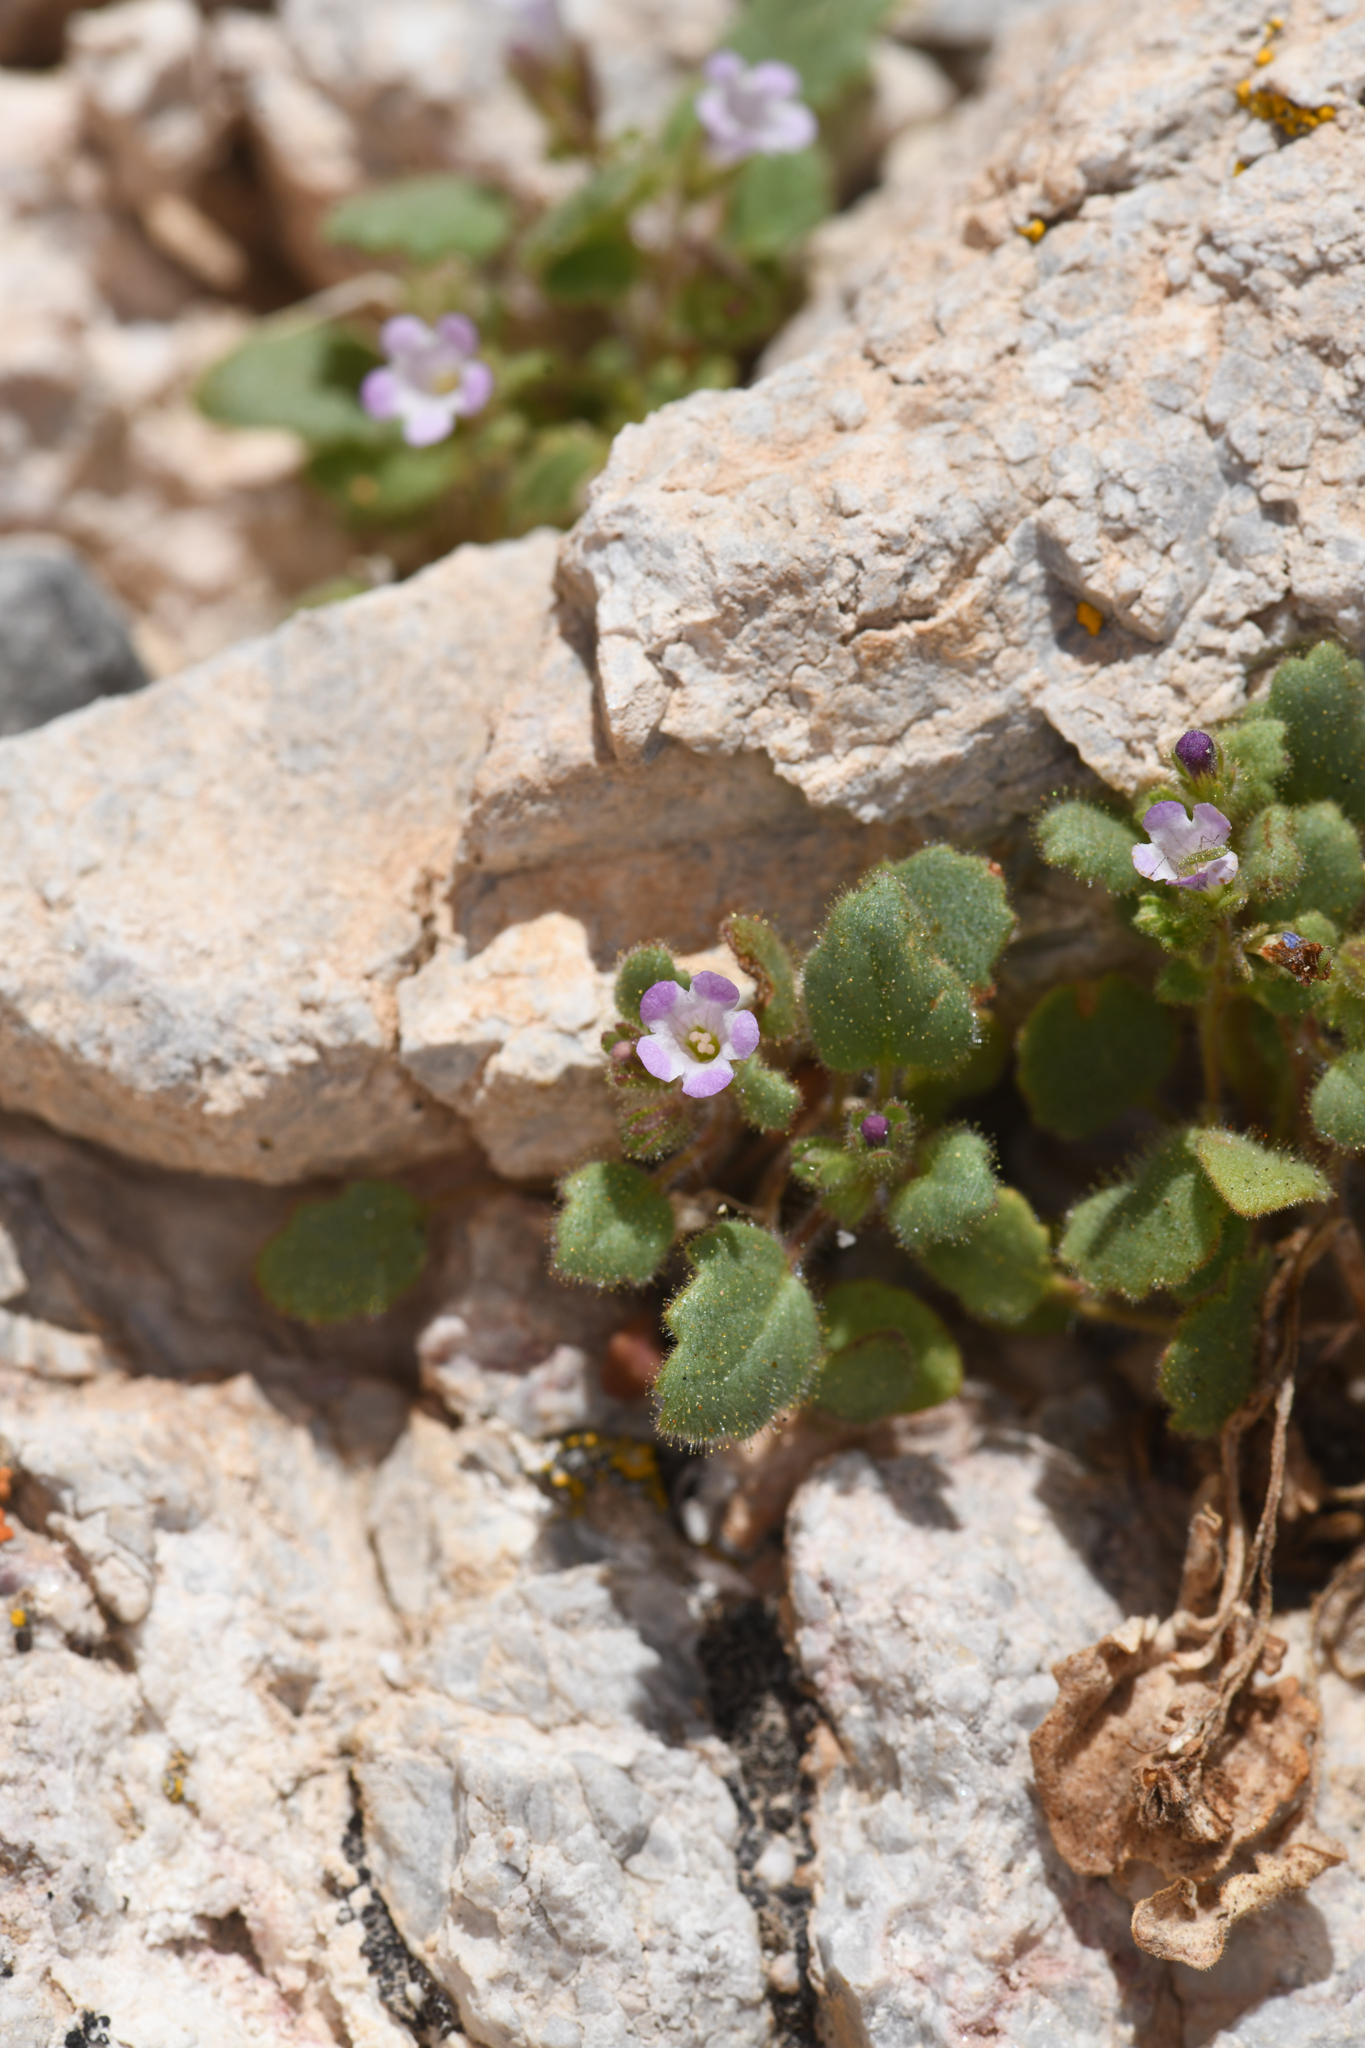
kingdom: Plantae
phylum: Tracheophyta
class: Magnoliopsida
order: Boraginales
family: Hydrophyllaceae
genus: Phacelia
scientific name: Phacelia mustelina
